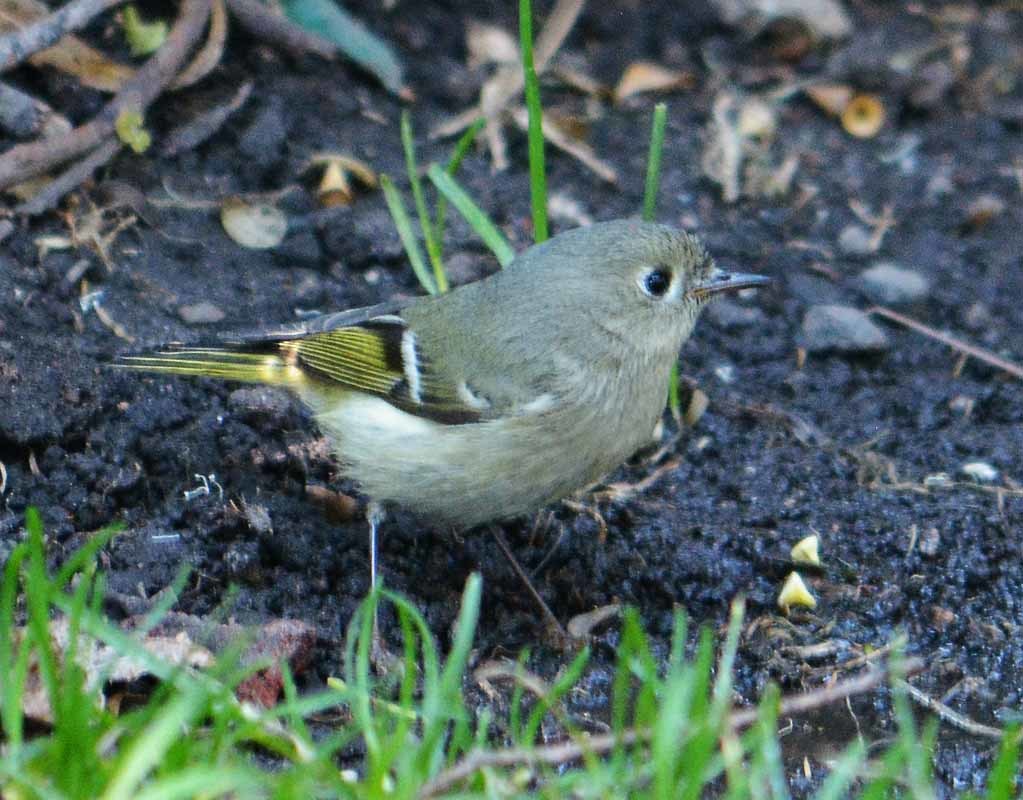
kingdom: Animalia
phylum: Chordata
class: Aves
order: Passeriformes
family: Regulidae
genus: Regulus
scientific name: Regulus calendula
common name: Ruby-crowned kinglet
